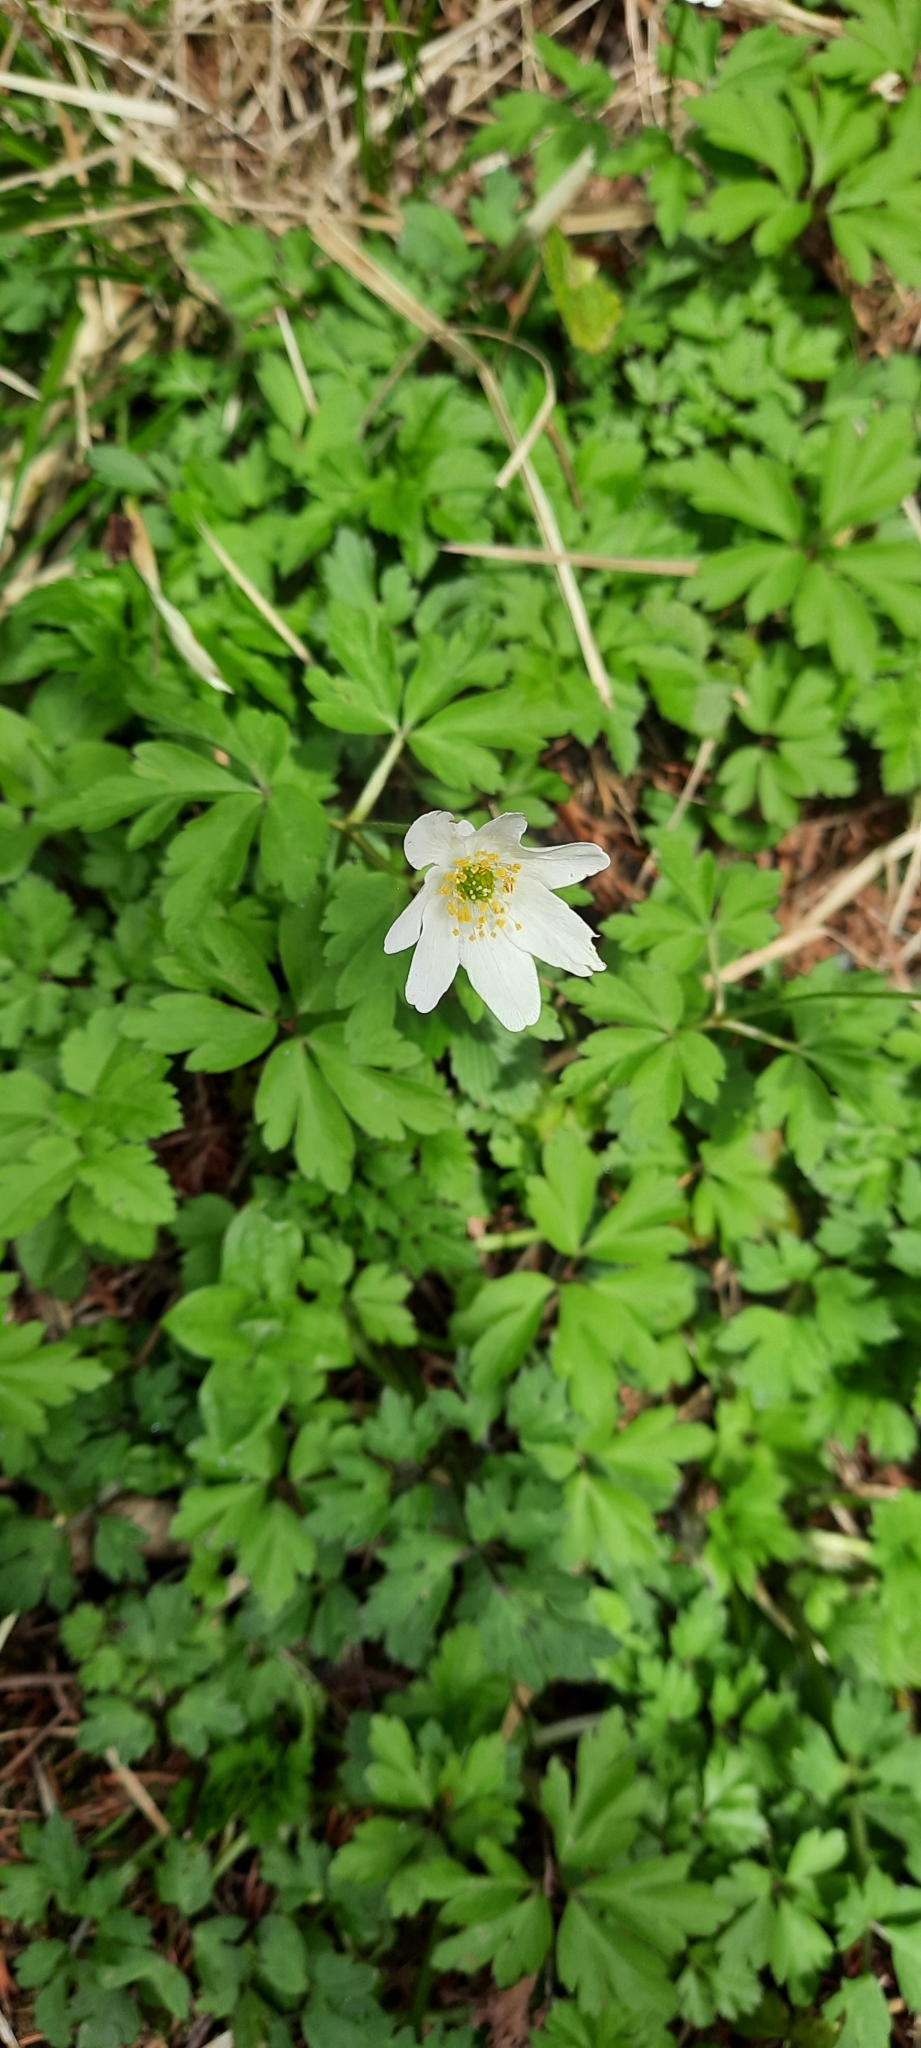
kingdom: Plantae
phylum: Tracheophyta
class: Magnoliopsida
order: Ranunculales
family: Ranunculaceae
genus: Anemone
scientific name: Anemone nemorosa
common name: Wood anemone
